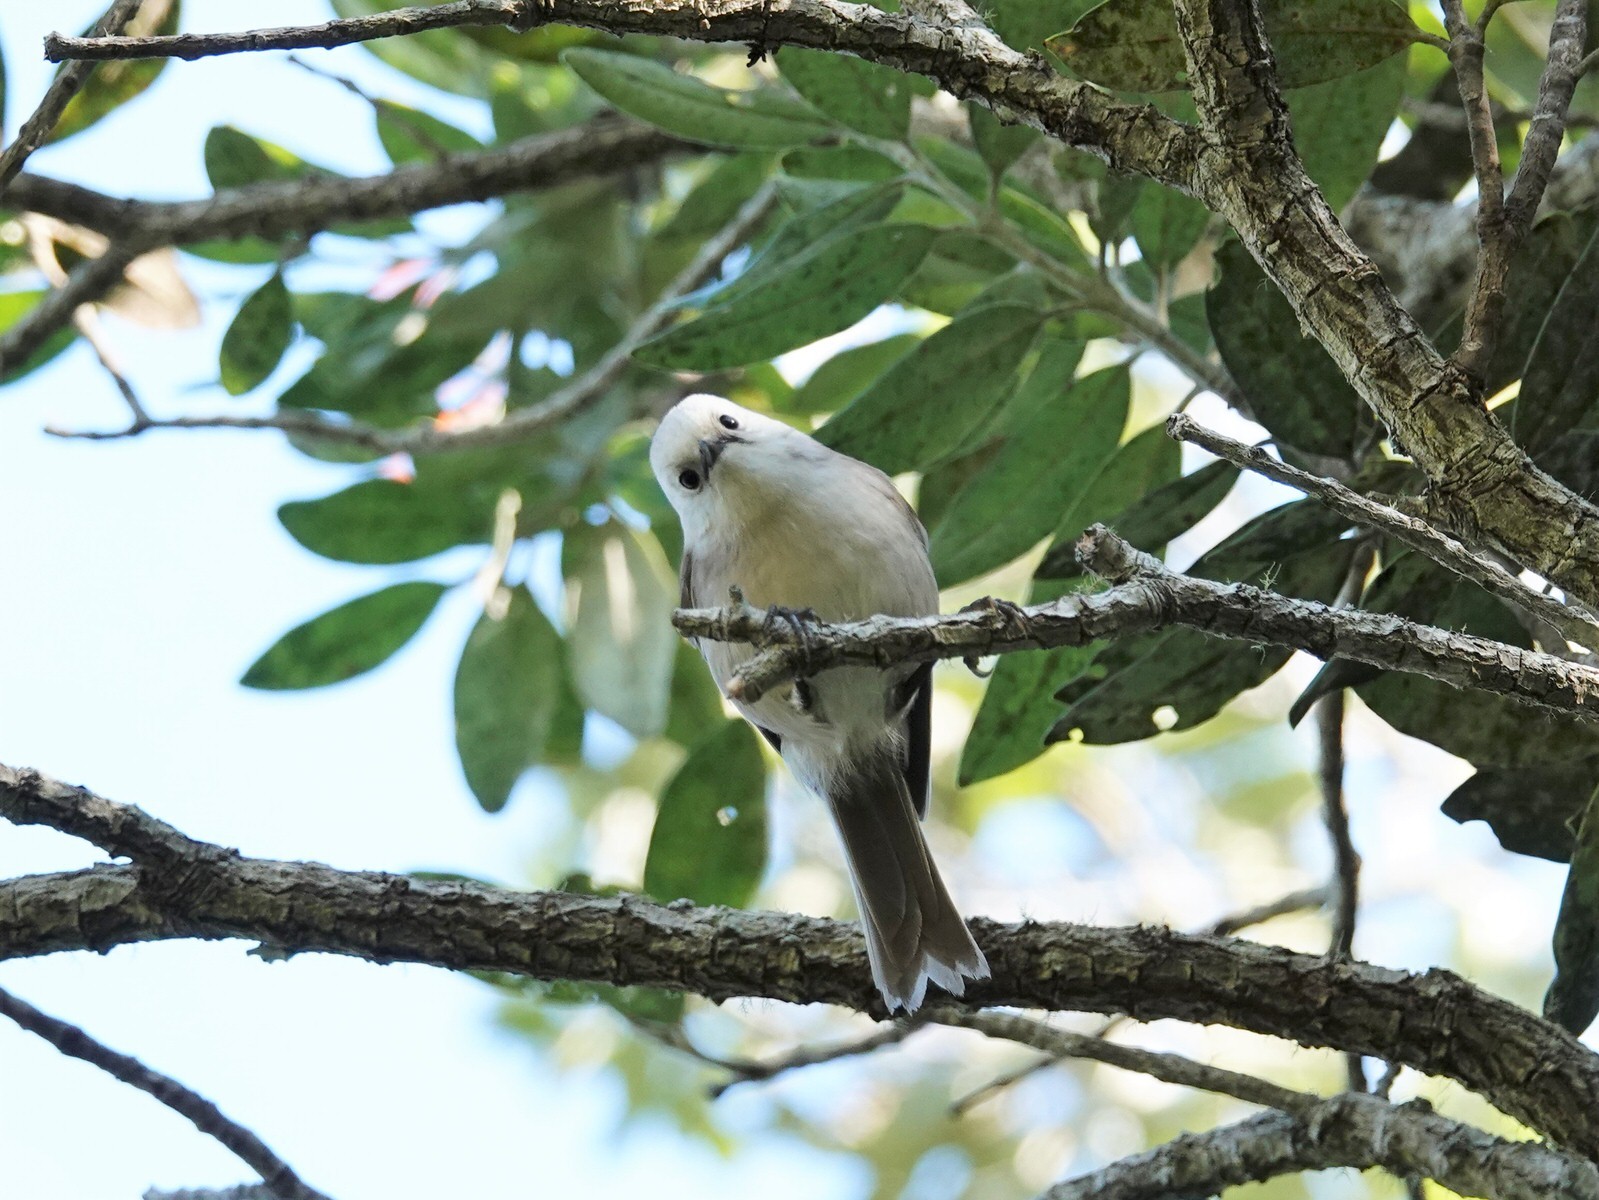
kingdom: Animalia
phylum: Chordata
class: Aves
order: Passeriformes
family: Acanthizidae
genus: Mohoua
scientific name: Mohoua albicilla
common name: Whitehead
